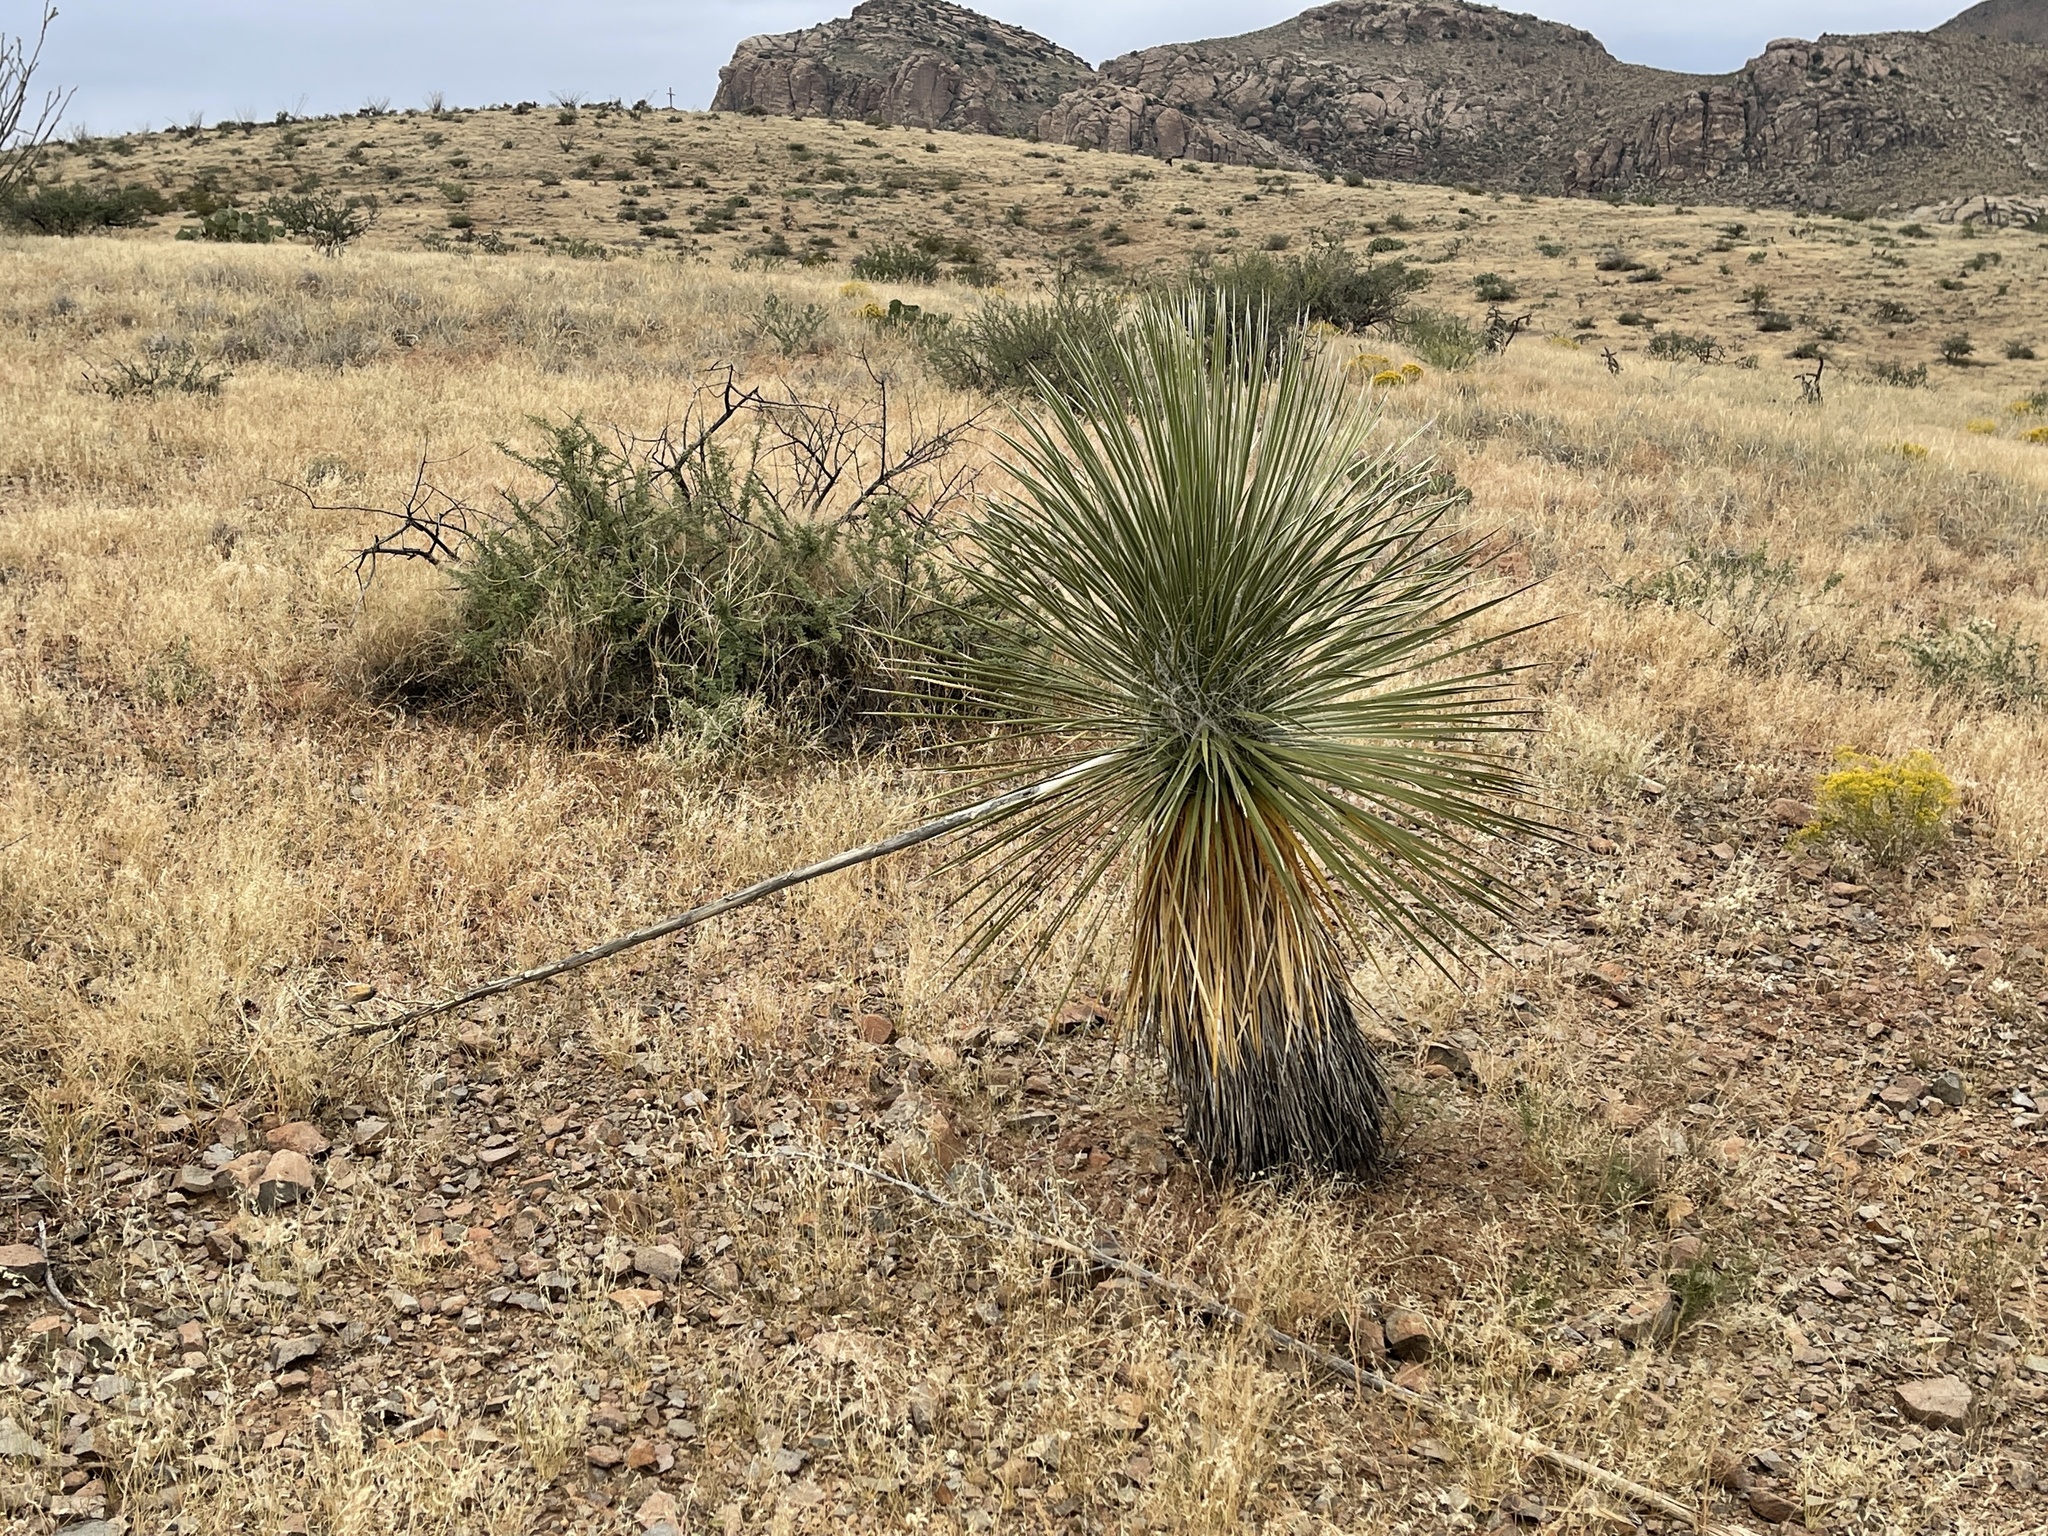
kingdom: Plantae
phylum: Tracheophyta
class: Liliopsida
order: Asparagales
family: Asparagaceae
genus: Yucca
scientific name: Yucca elata
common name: Palmella
